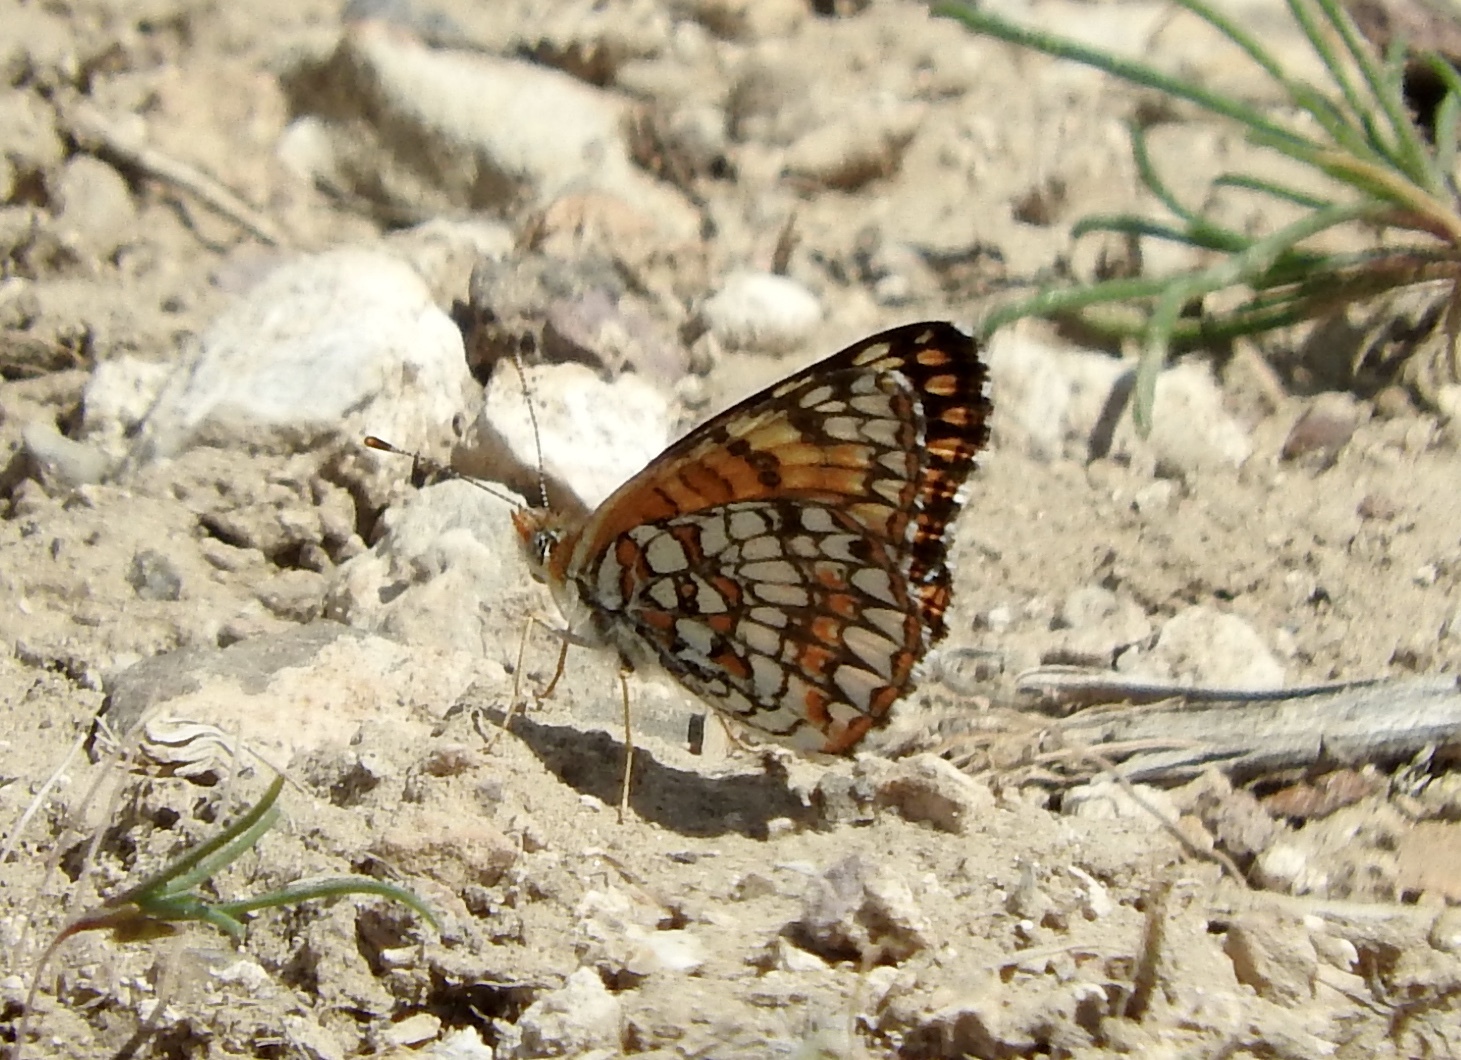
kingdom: Animalia
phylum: Arthropoda
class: Insecta
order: Lepidoptera
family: Nymphalidae
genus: Chlosyne
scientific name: Chlosyne acastus
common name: Sagebrush checkerspot
